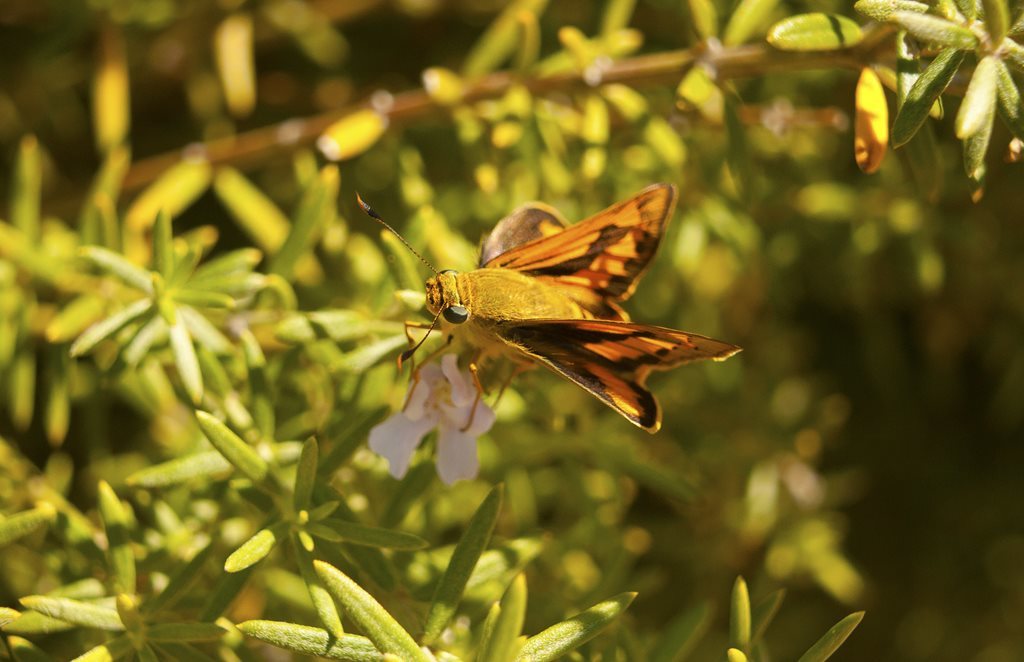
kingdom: Animalia
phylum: Arthropoda
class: Insecta
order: Lepidoptera
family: Hesperiidae
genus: Cephrenes
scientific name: Cephrenes augiades
